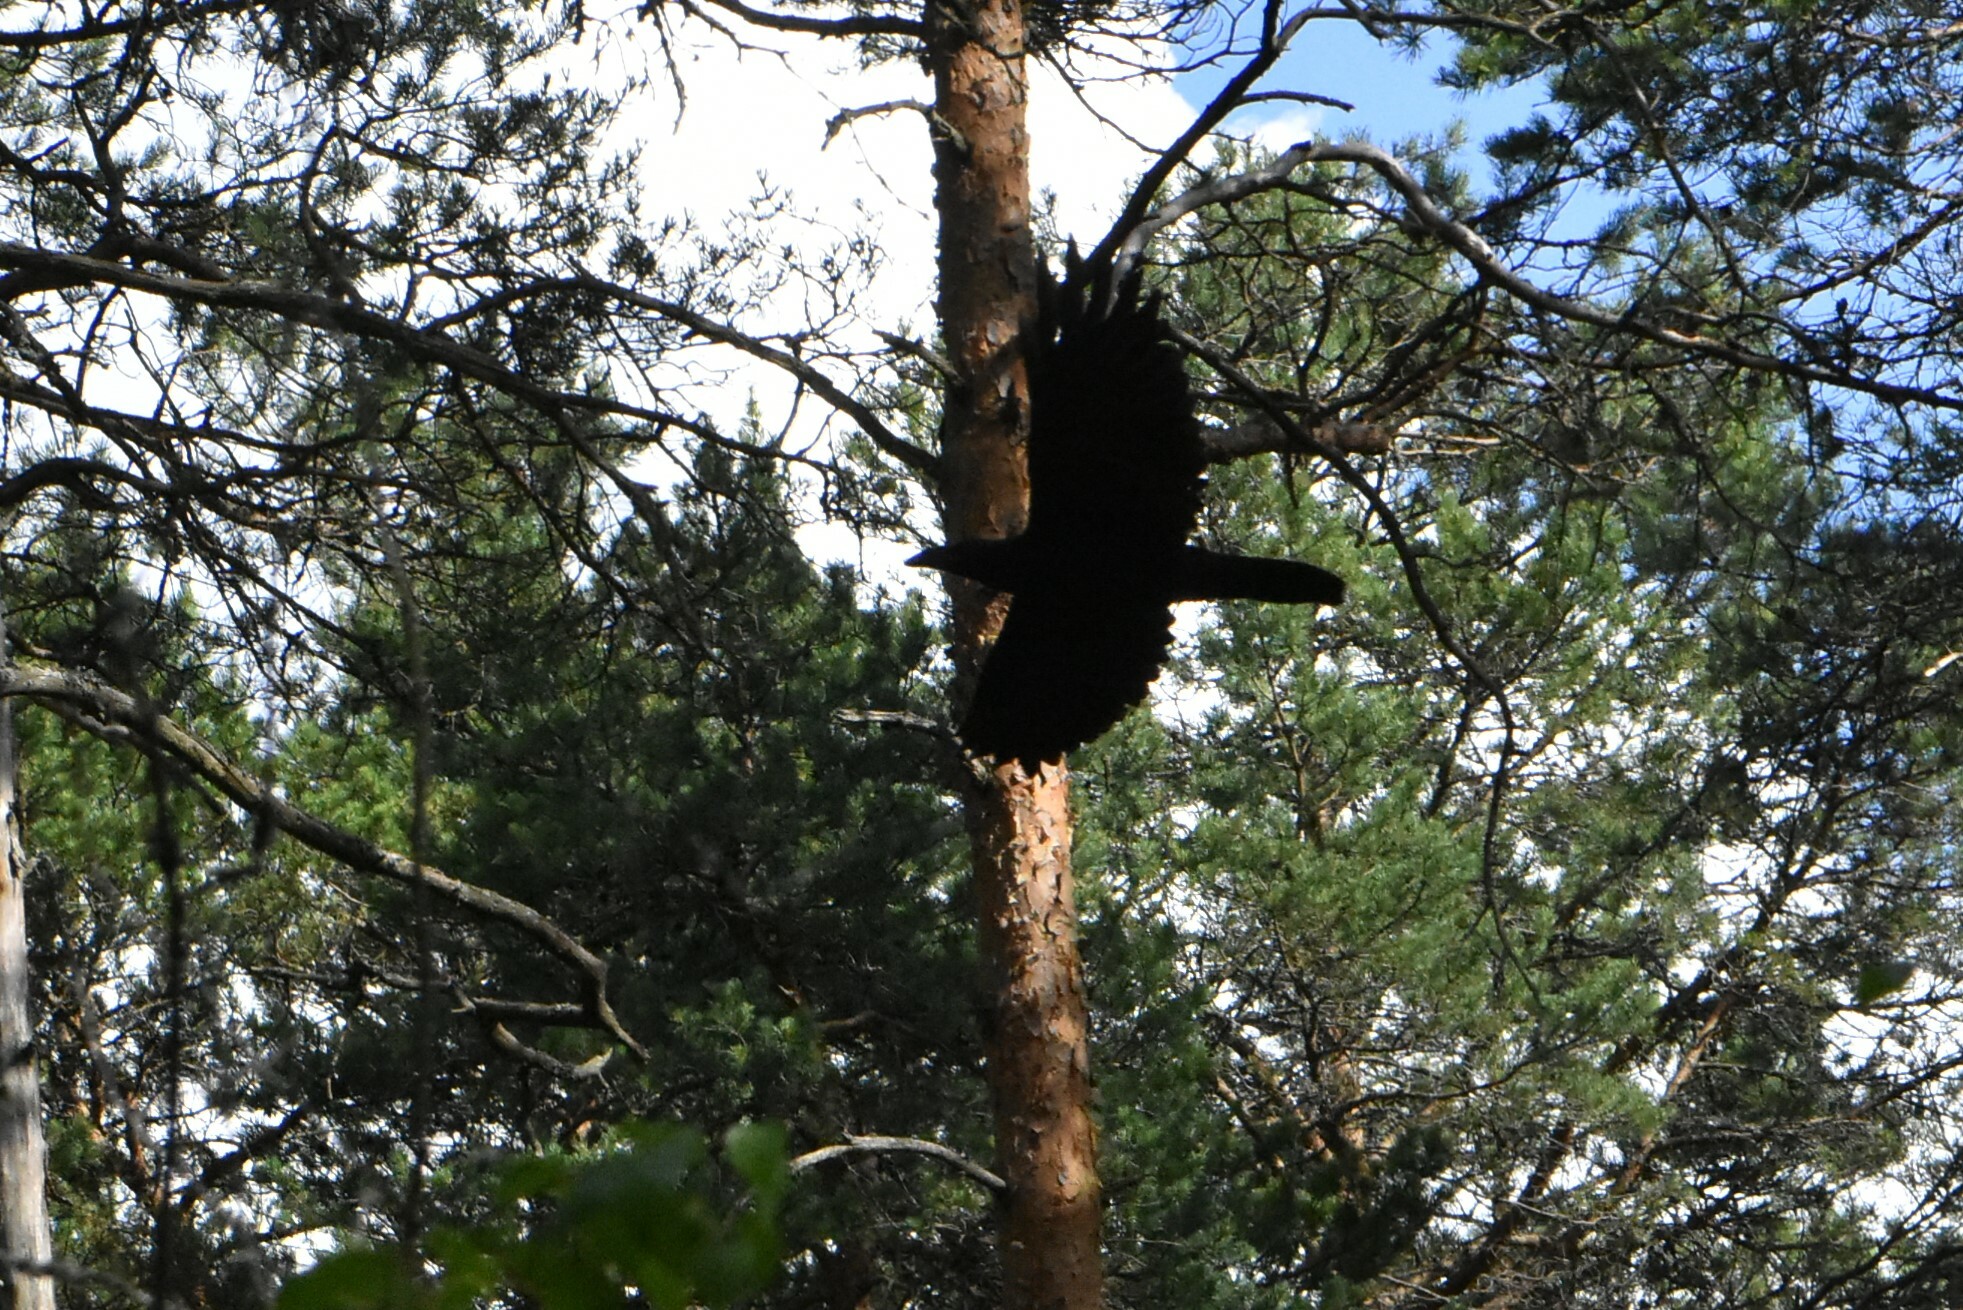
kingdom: Animalia
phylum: Chordata
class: Aves
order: Passeriformes
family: Corvidae
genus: Corvus
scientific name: Corvus corax
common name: Common raven
